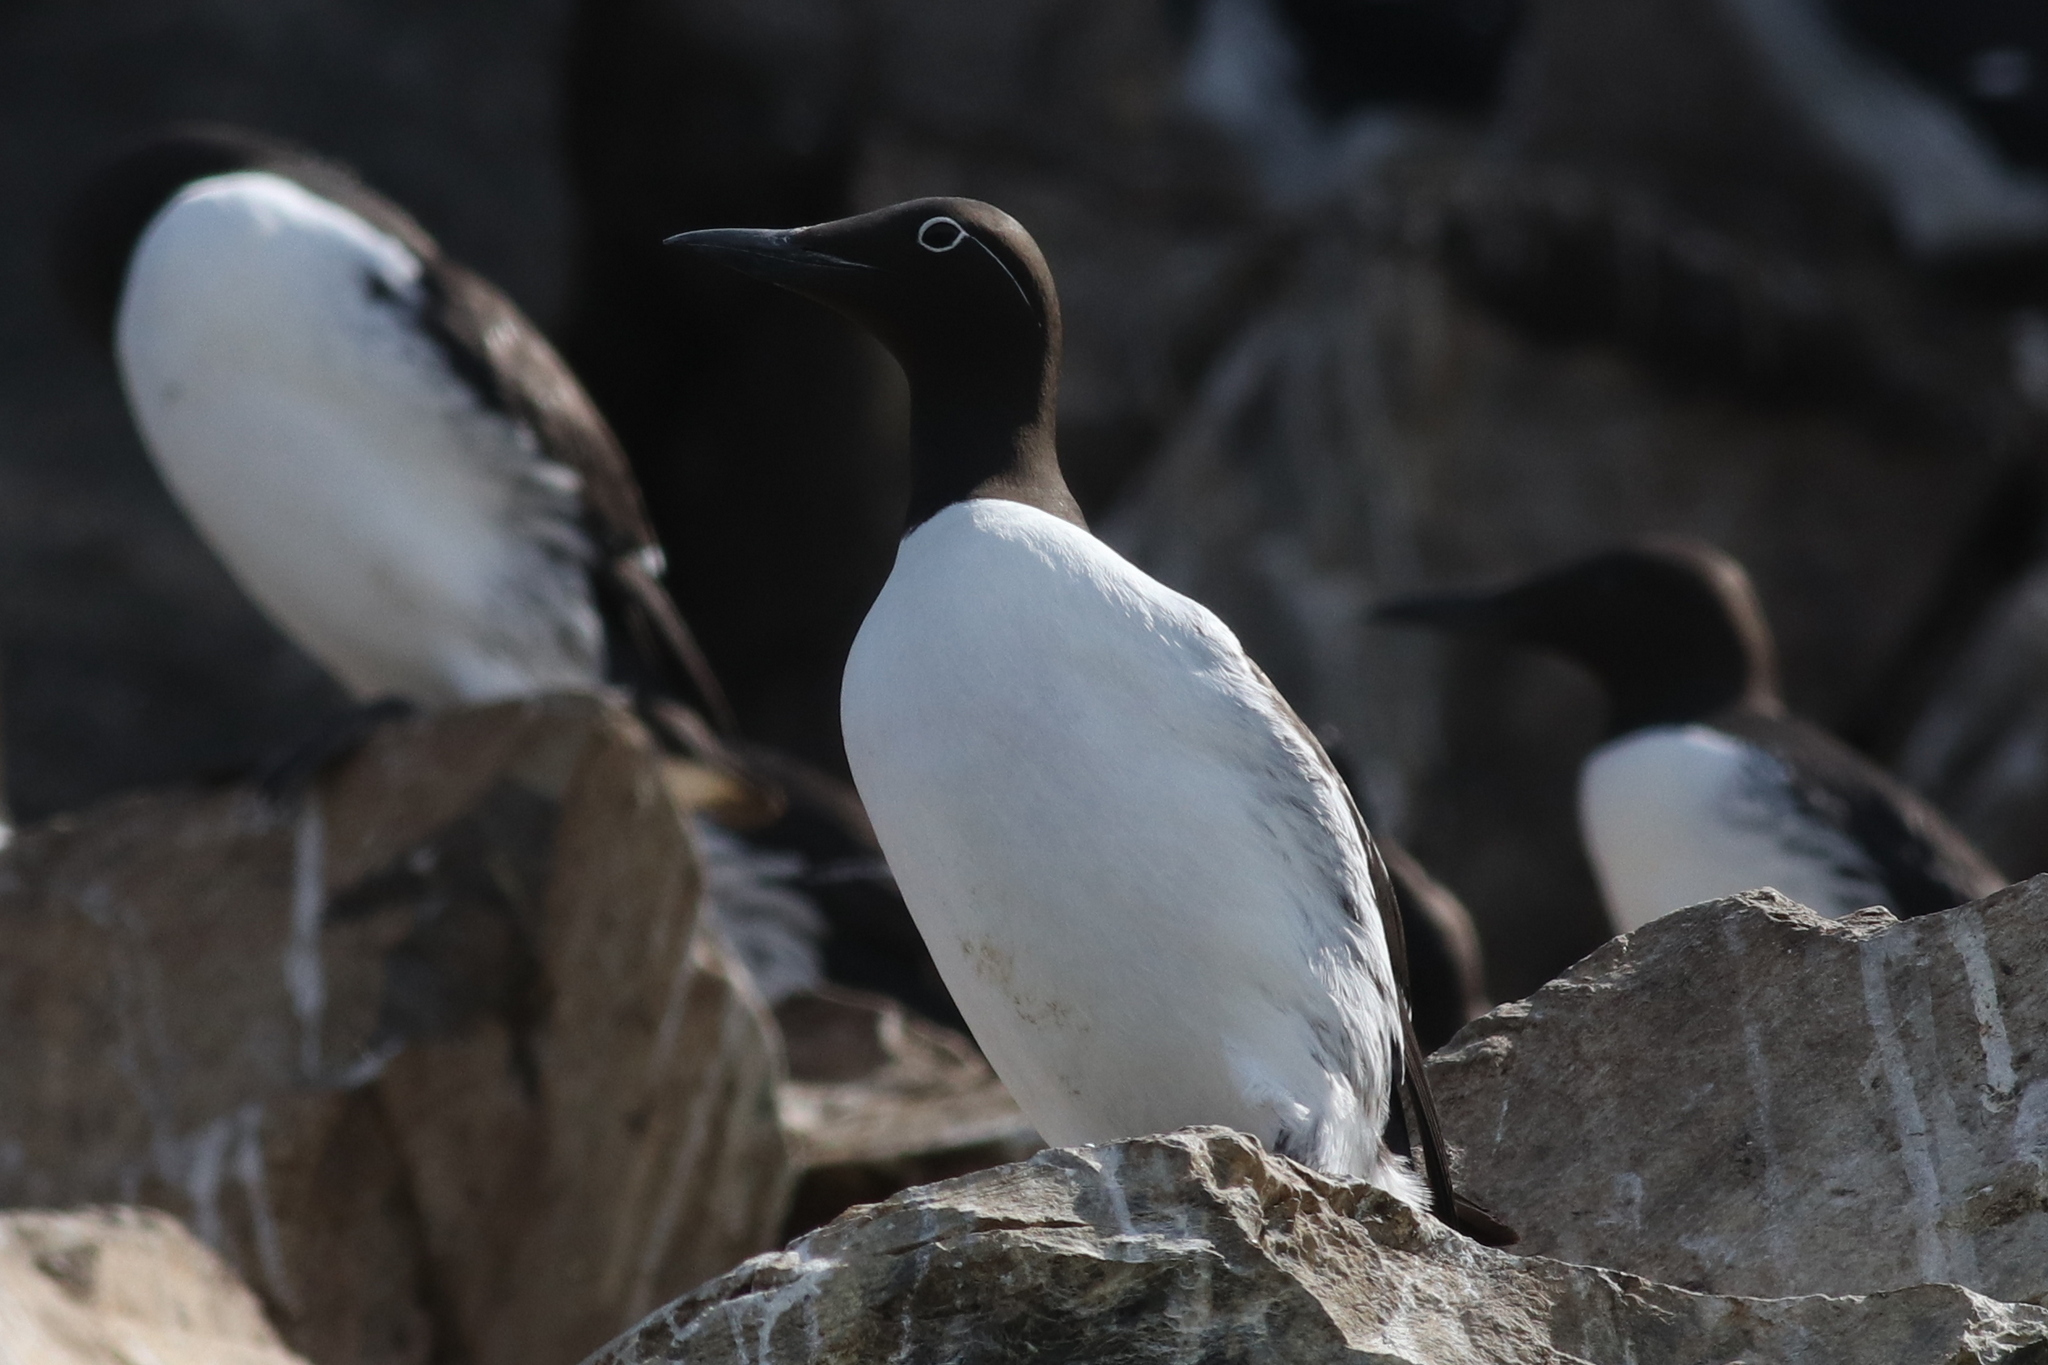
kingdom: Animalia
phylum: Chordata
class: Aves
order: Charadriiformes
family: Alcidae
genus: Uria
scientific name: Uria aalge
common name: Common murre
